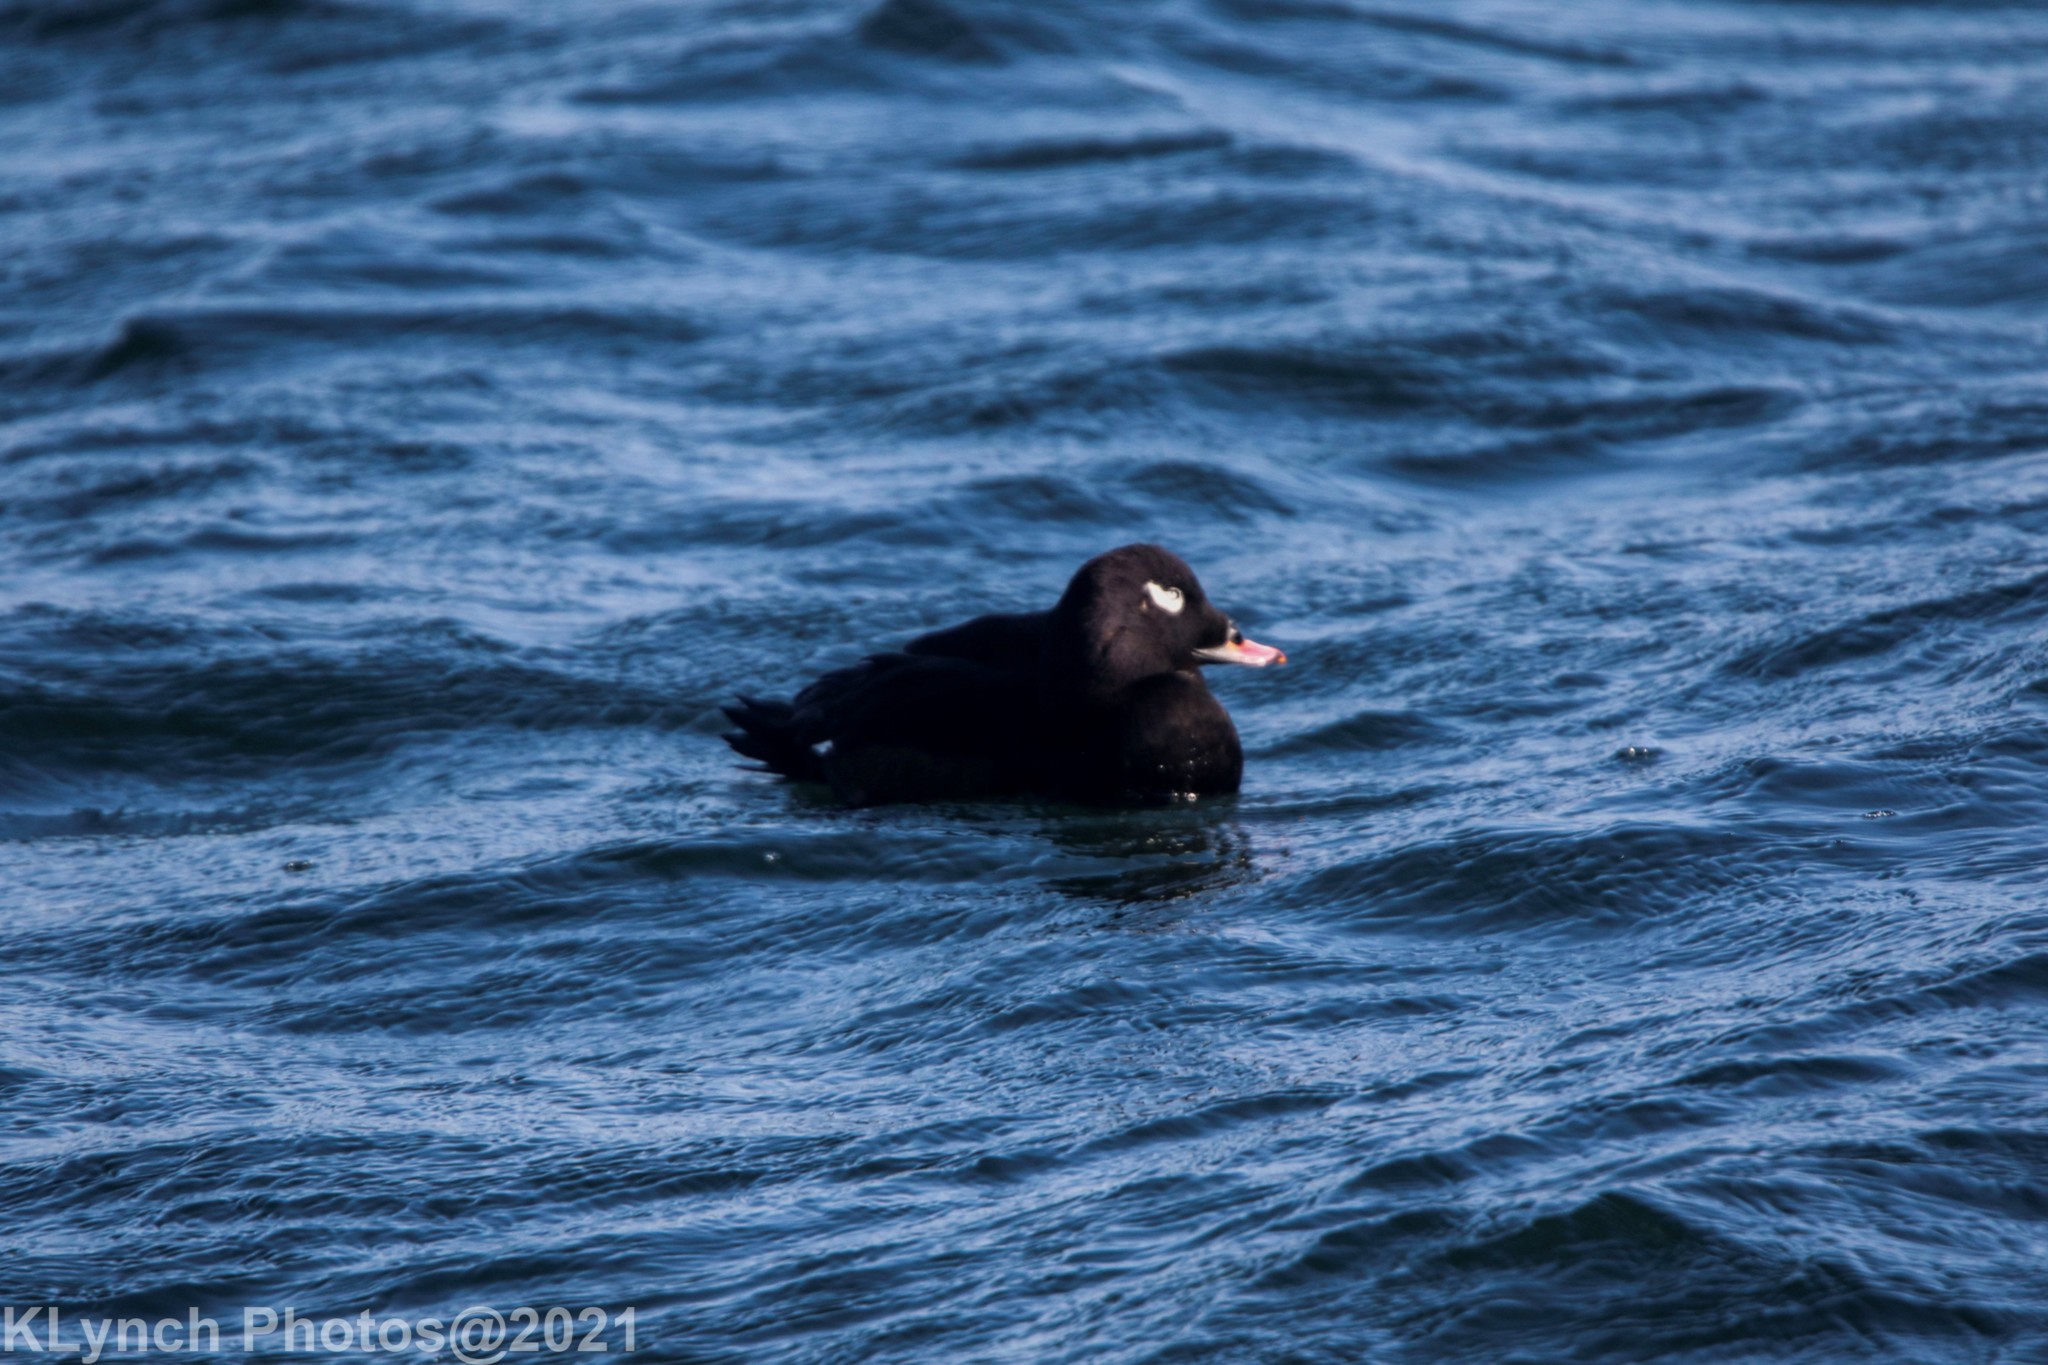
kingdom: Animalia
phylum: Chordata
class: Aves
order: Anseriformes
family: Anatidae
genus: Melanitta
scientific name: Melanitta deglandi
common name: White-winged scoter
